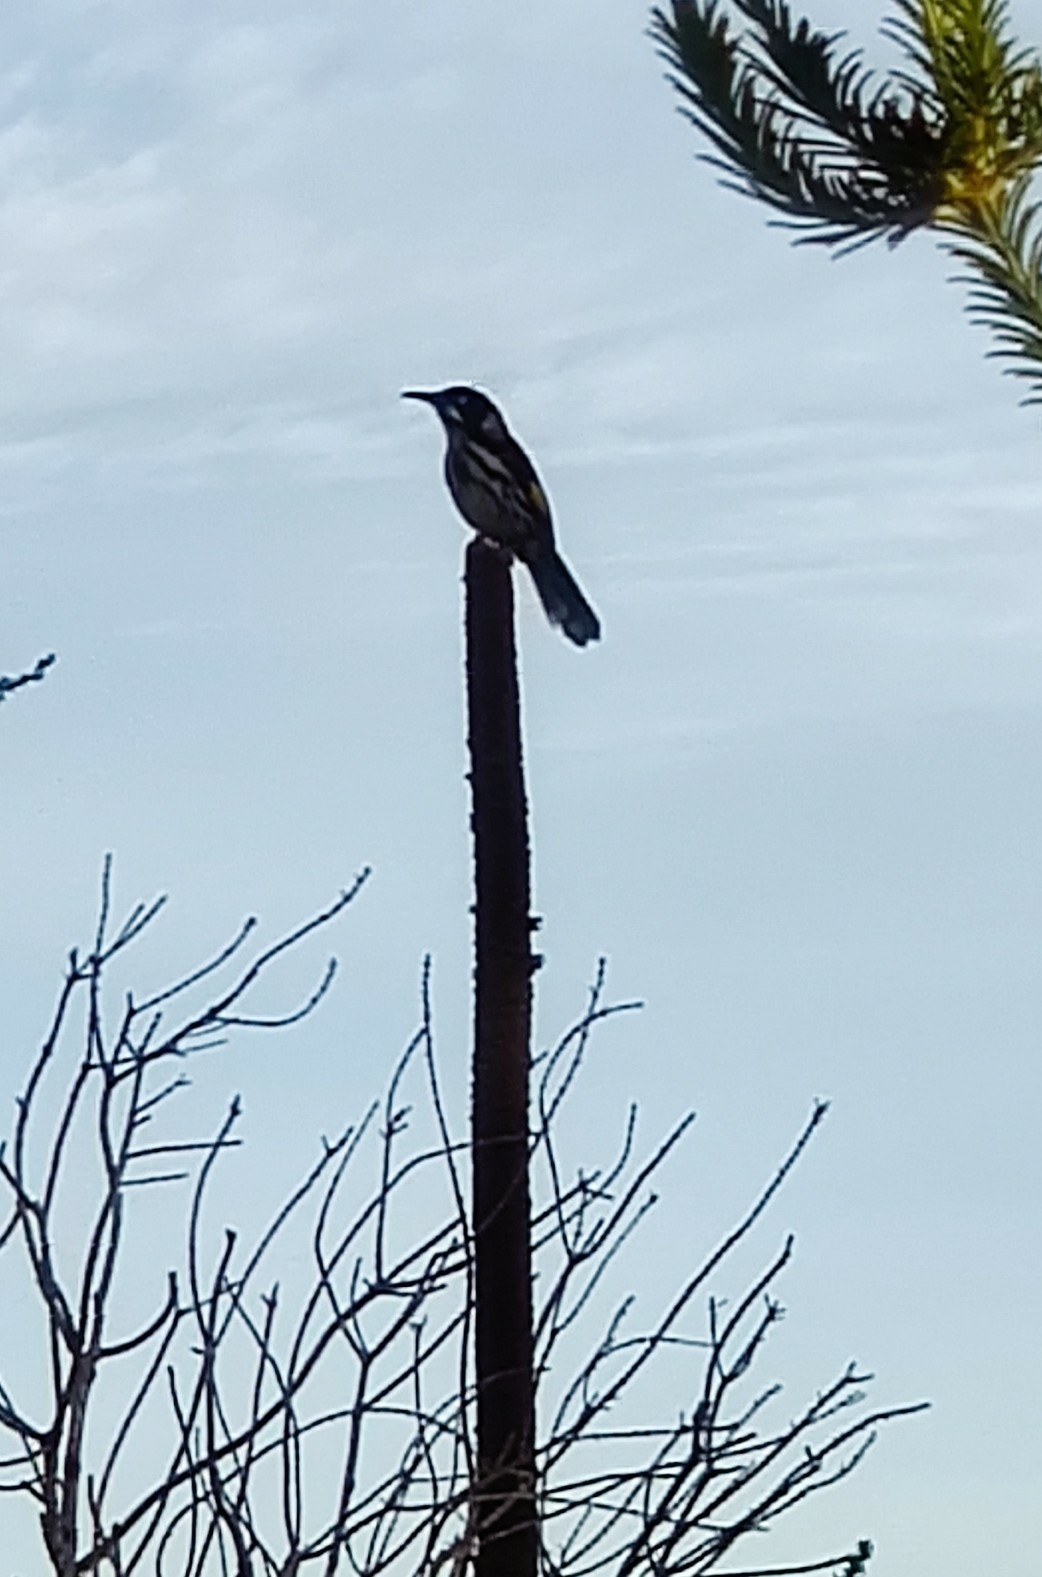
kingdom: Animalia
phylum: Chordata
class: Aves
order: Passeriformes
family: Meliphagidae
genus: Phylidonyris
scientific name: Phylidonyris novaehollandiae
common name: New holland honeyeater
